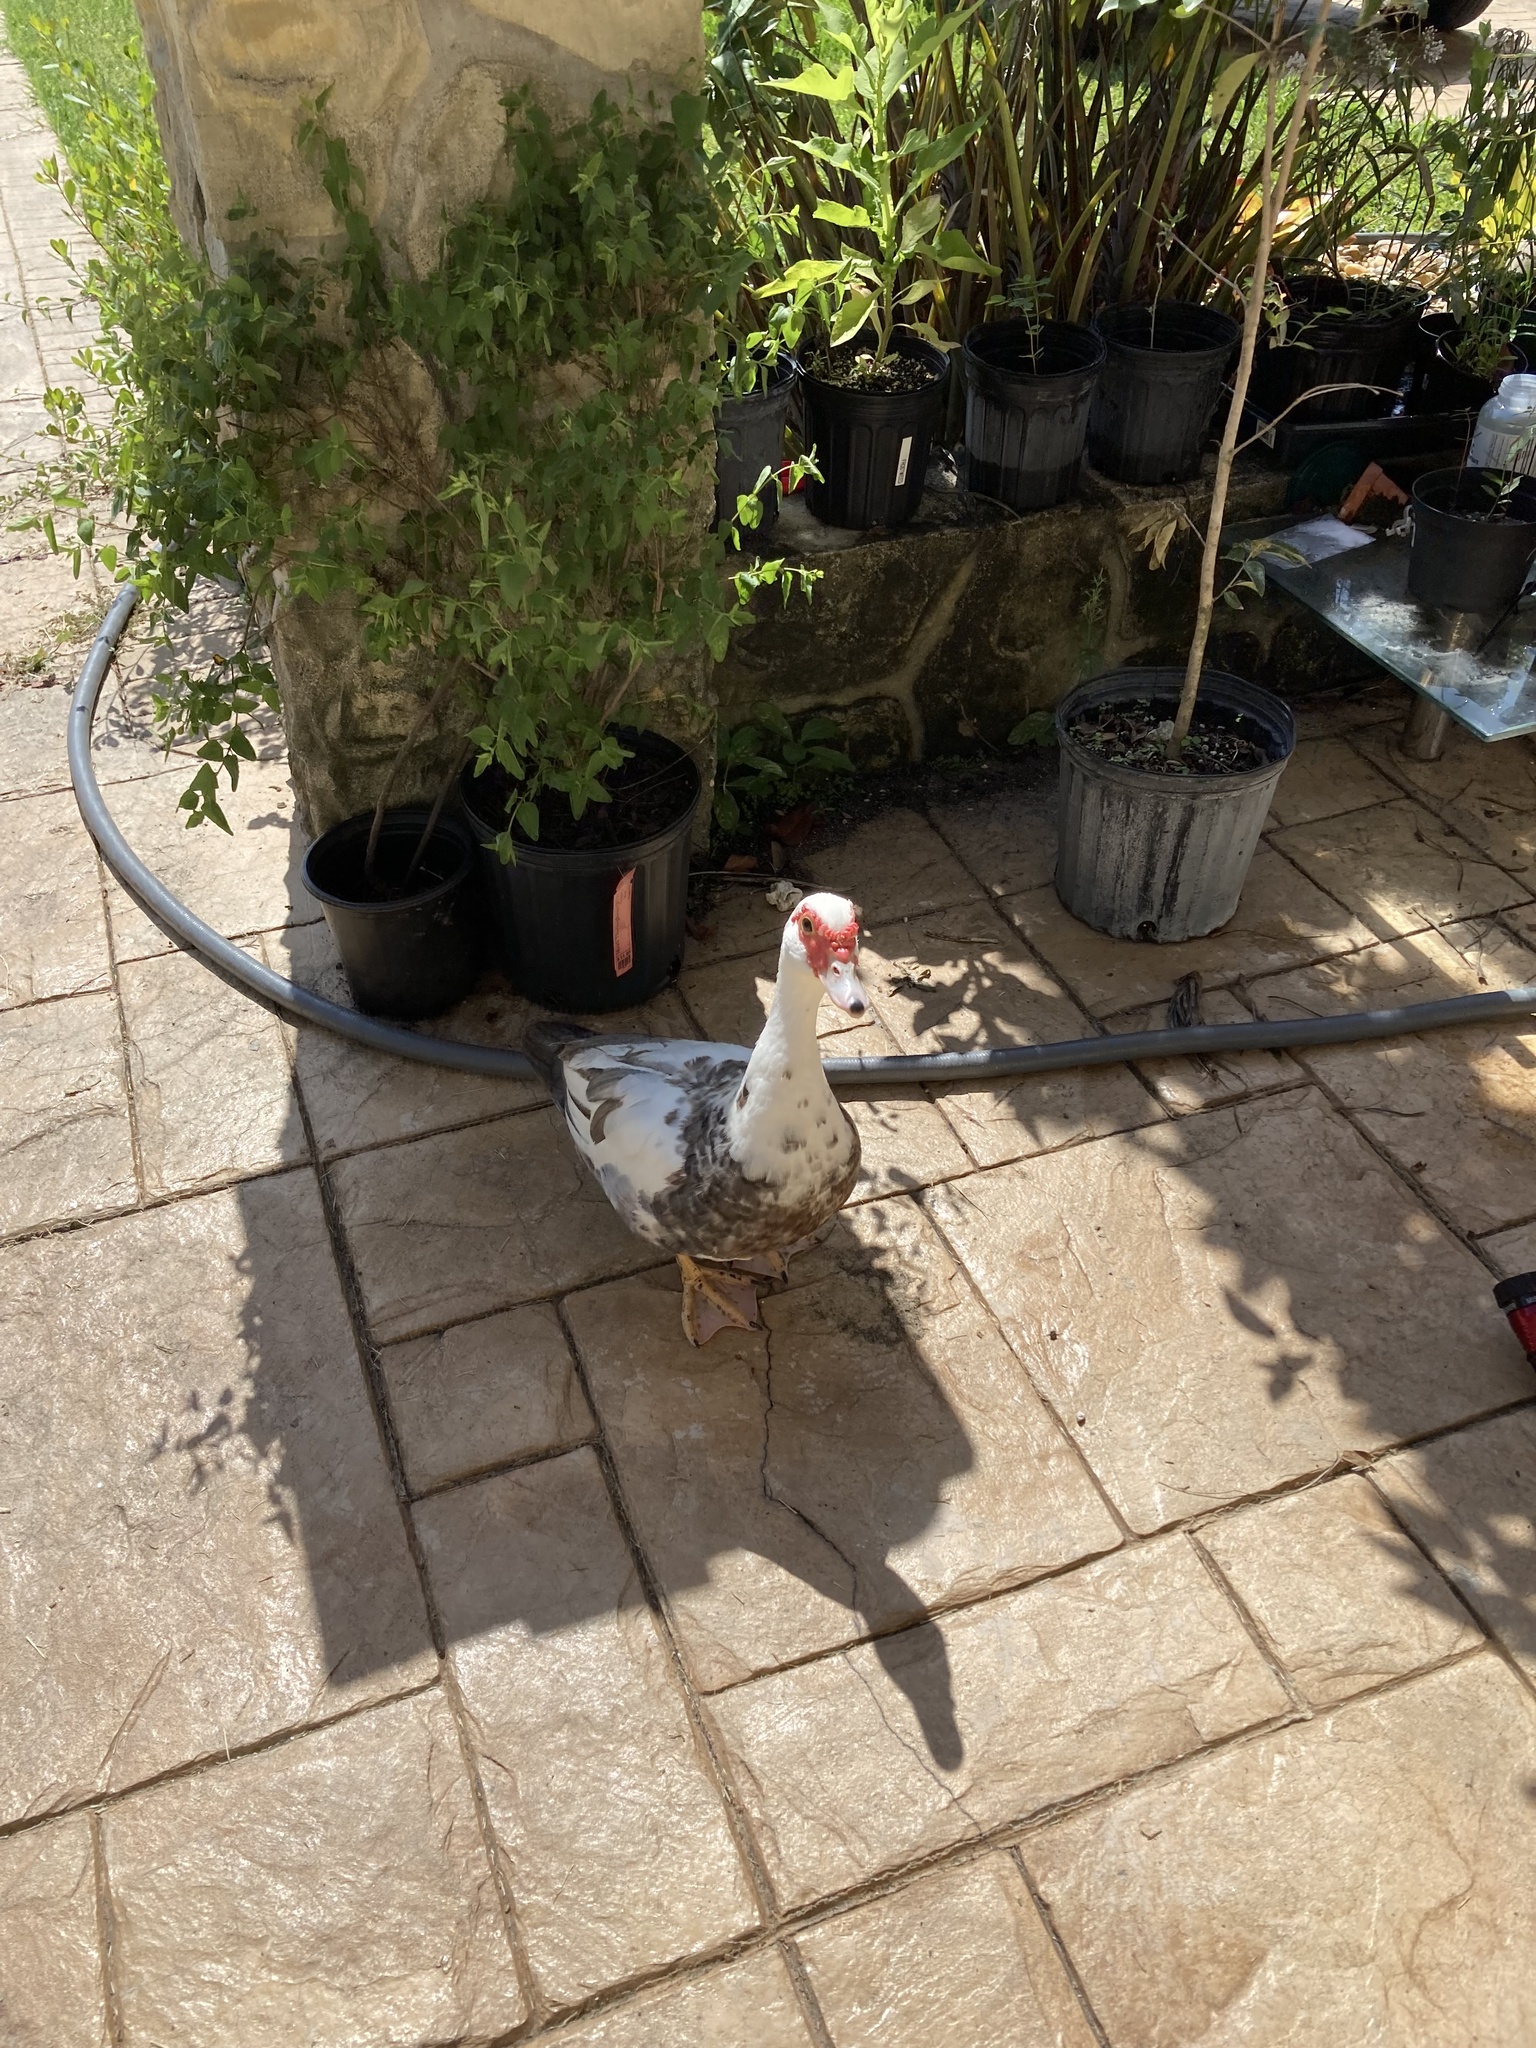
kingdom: Animalia
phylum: Chordata
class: Aves
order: Anseriformes
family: Anatidae
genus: Cairina
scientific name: Cairina moschata
